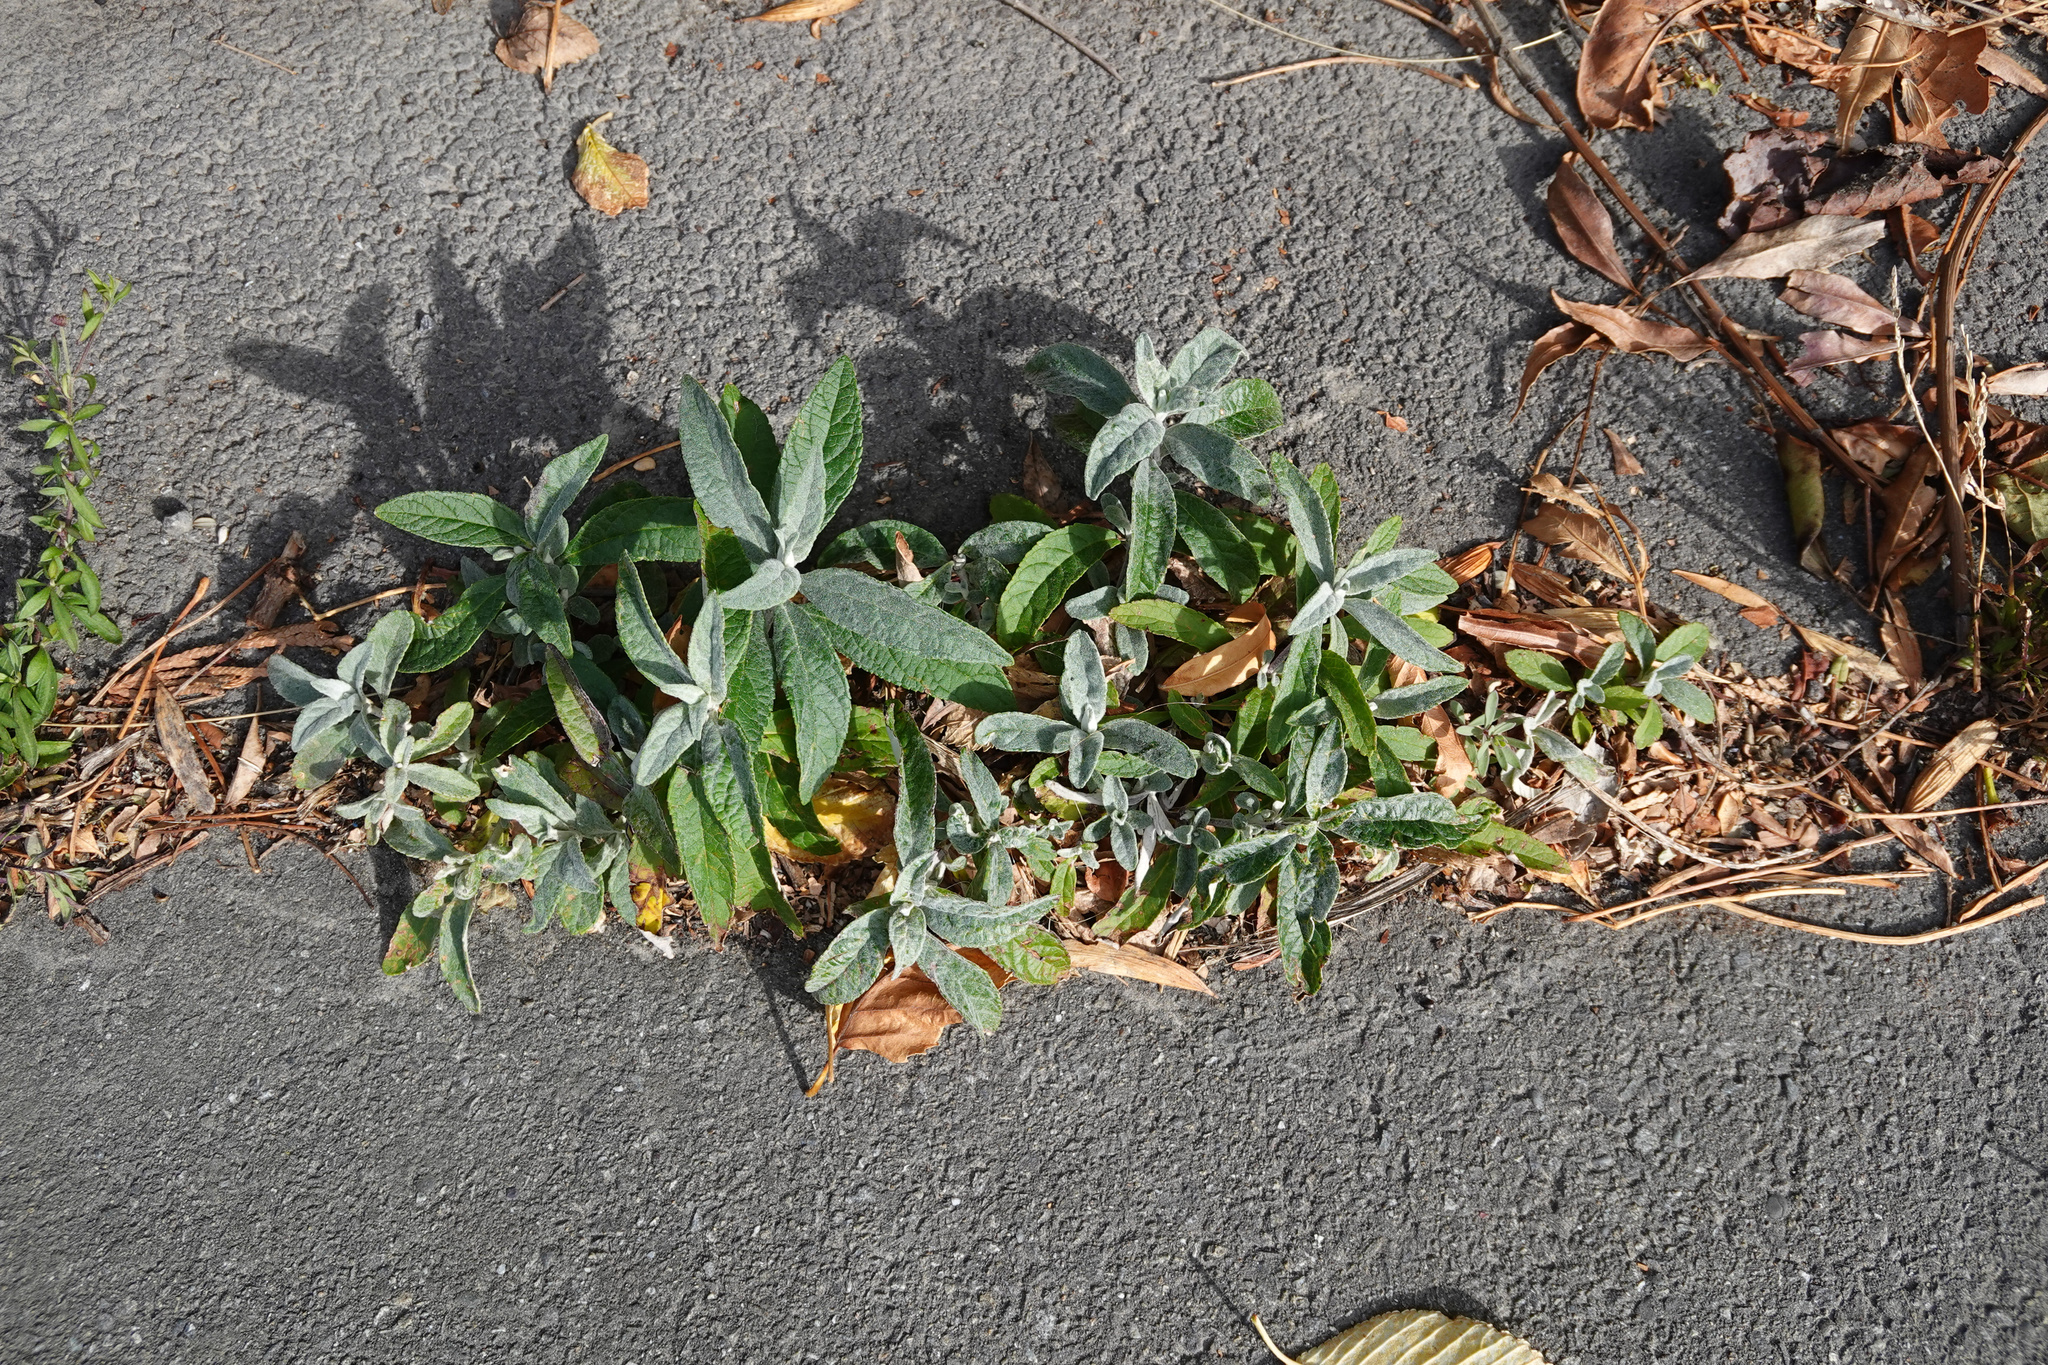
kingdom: Plantae
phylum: Tracheophyta
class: Magnoliopsida
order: Lamiales
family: Scrophulariaceae
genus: Buddleja
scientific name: Buddleja davidii
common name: Butterfly-bush
